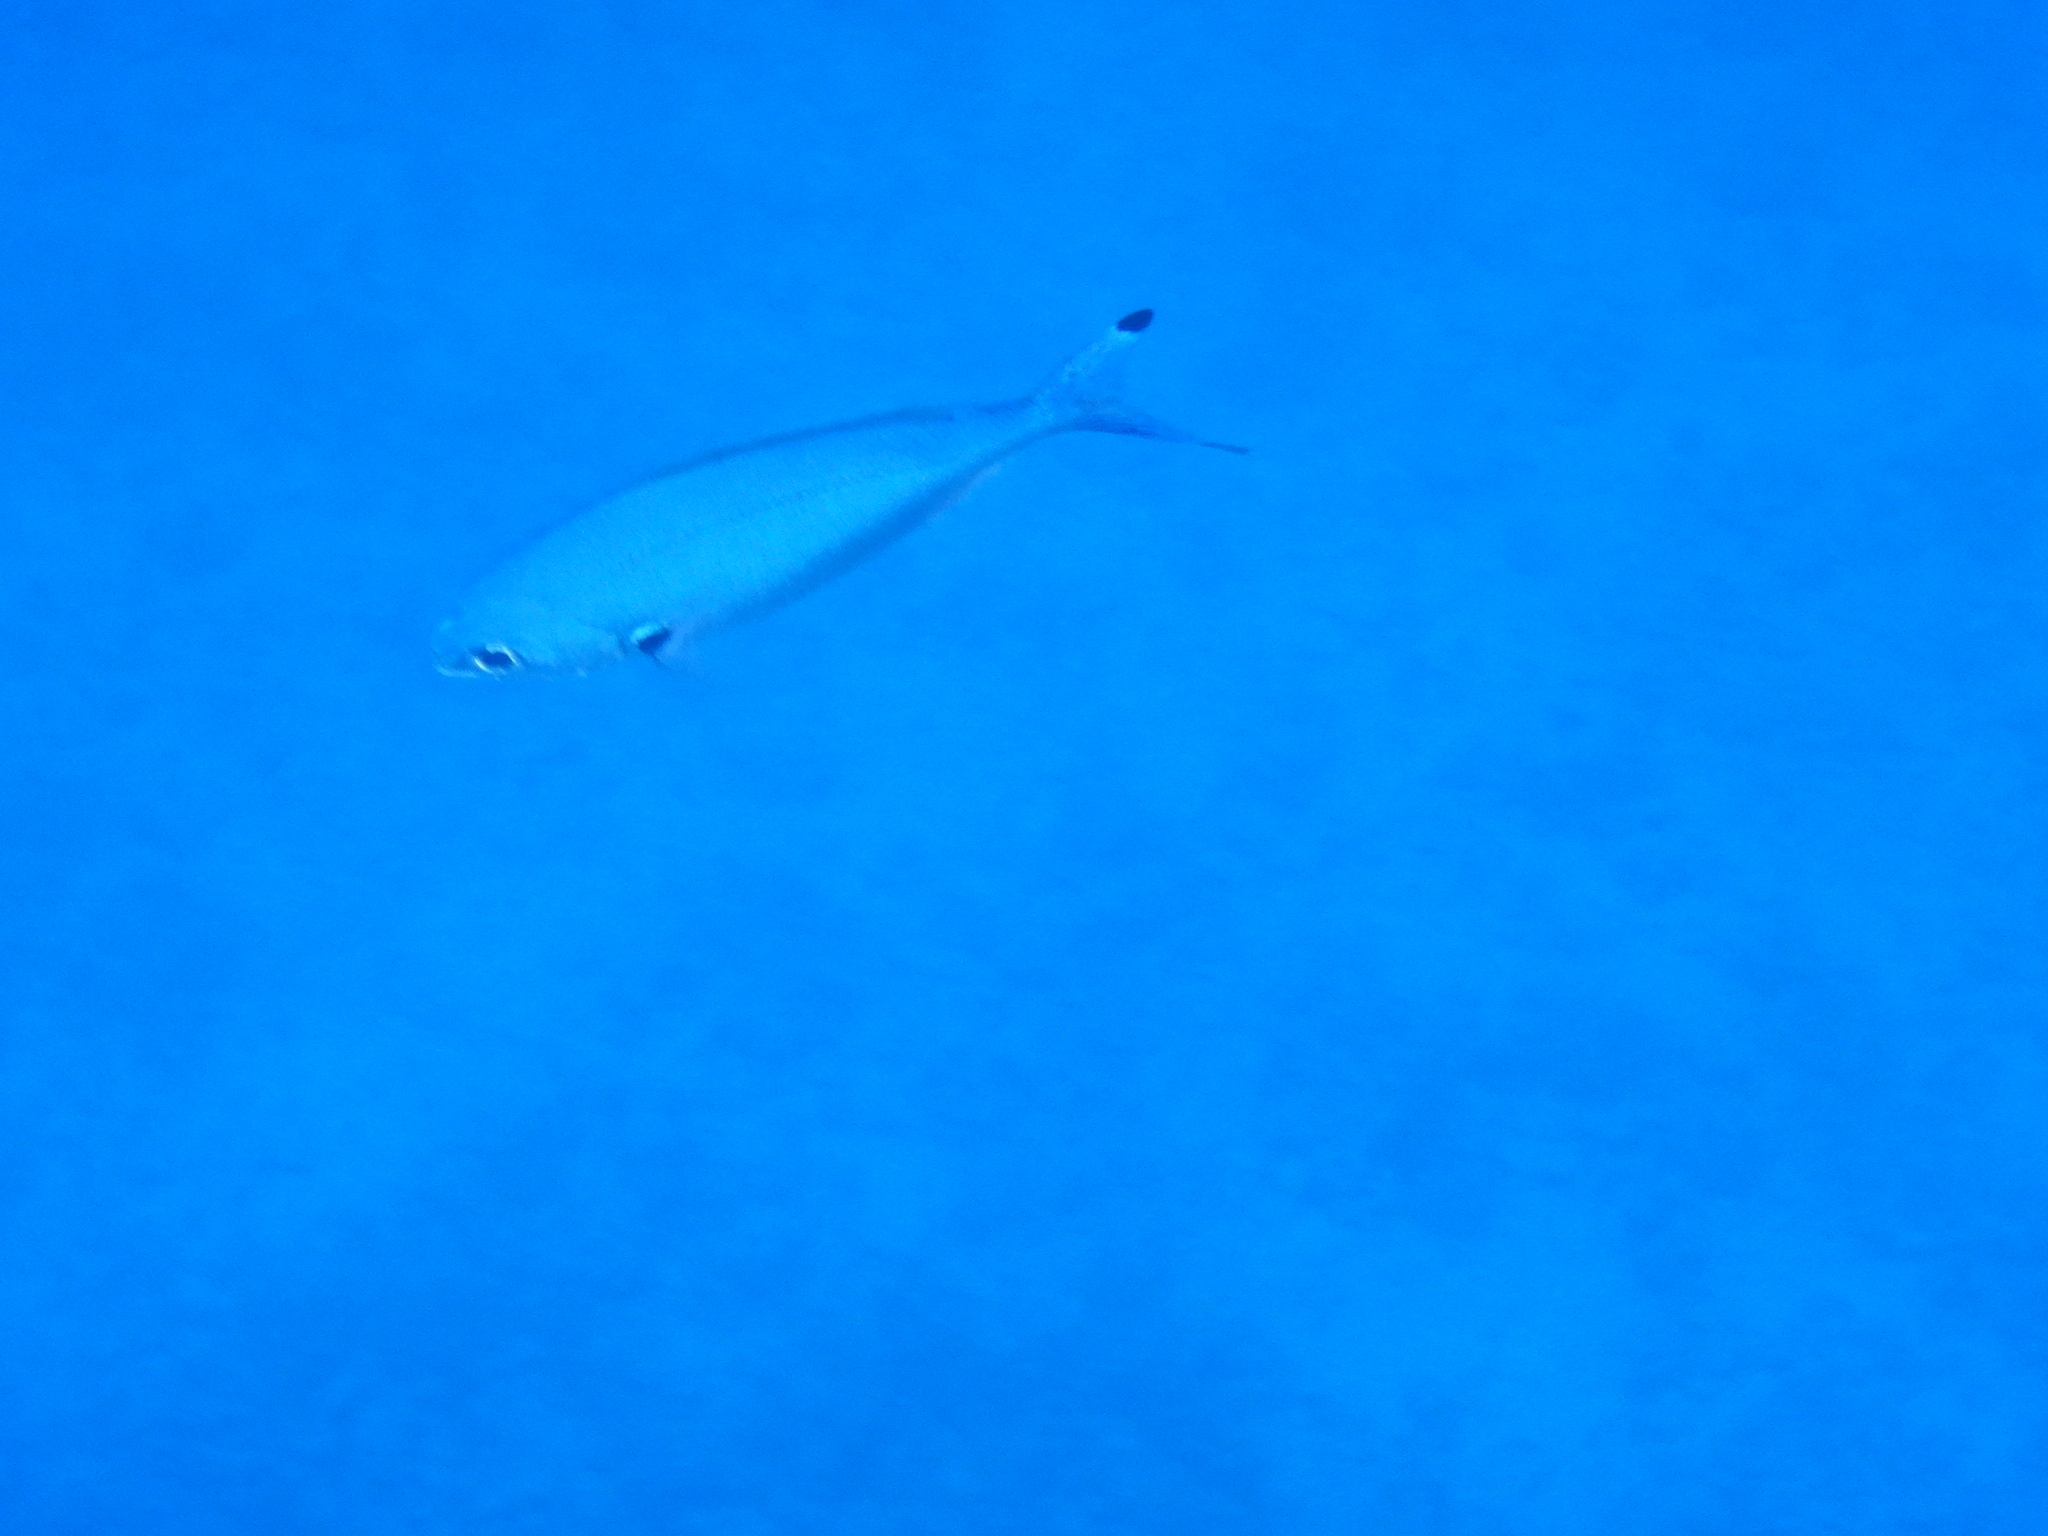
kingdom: Animalia
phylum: Chordata
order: Perciformes
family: Caesionidae
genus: Caesio
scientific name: Caesio lunaris
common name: Blue fusilier
